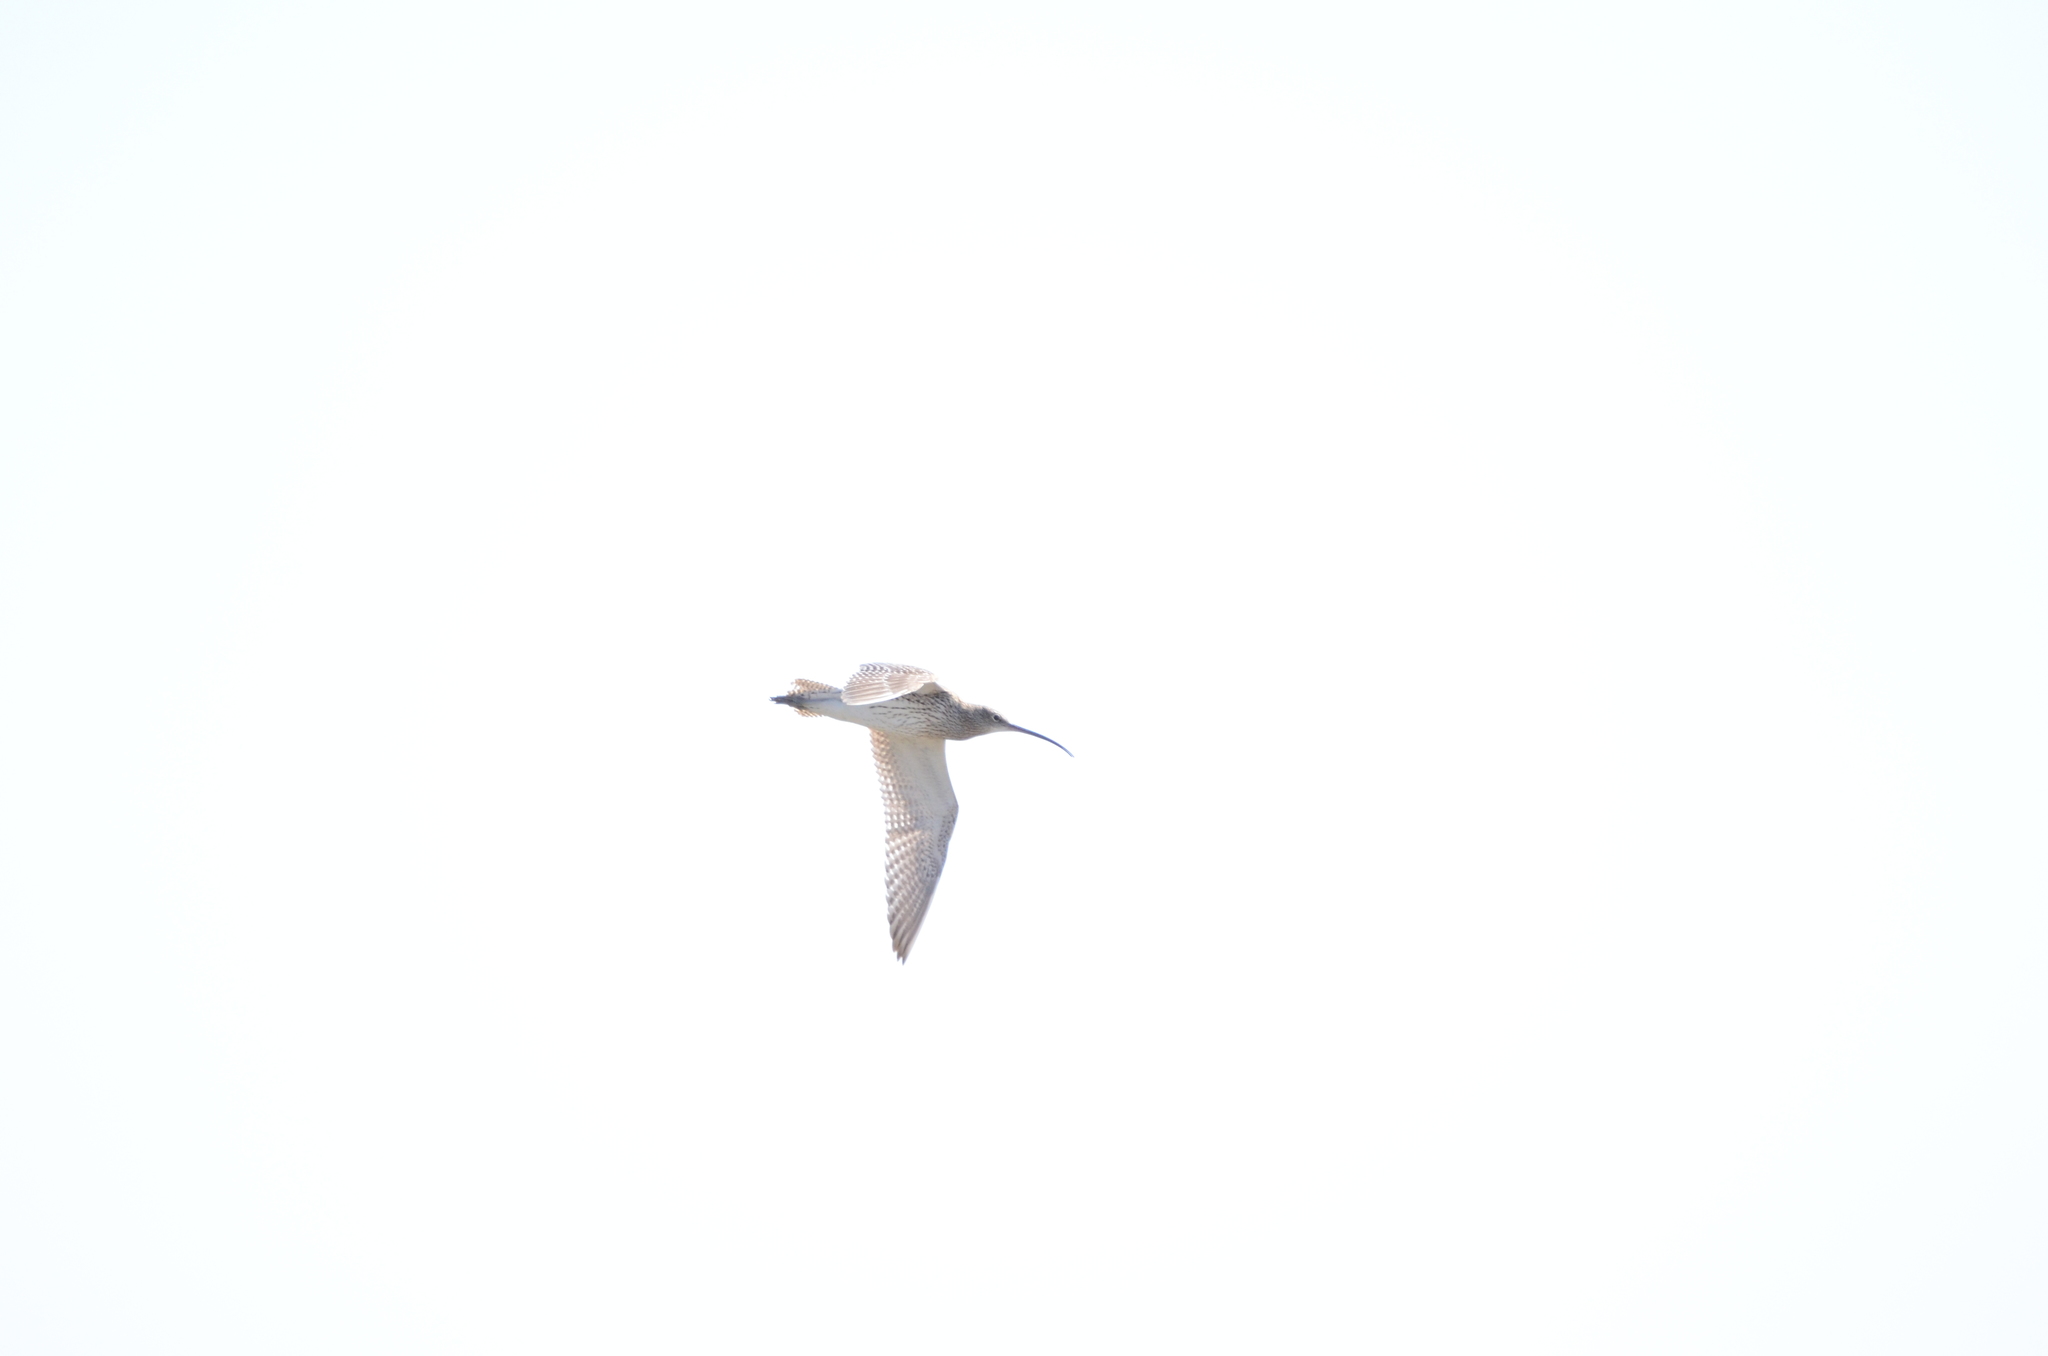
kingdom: Animalia
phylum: Chordata
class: Aves
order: Charadriiformes
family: Scolopacidae
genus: Numenius
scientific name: Numenius arquata
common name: Eurasian curlew
